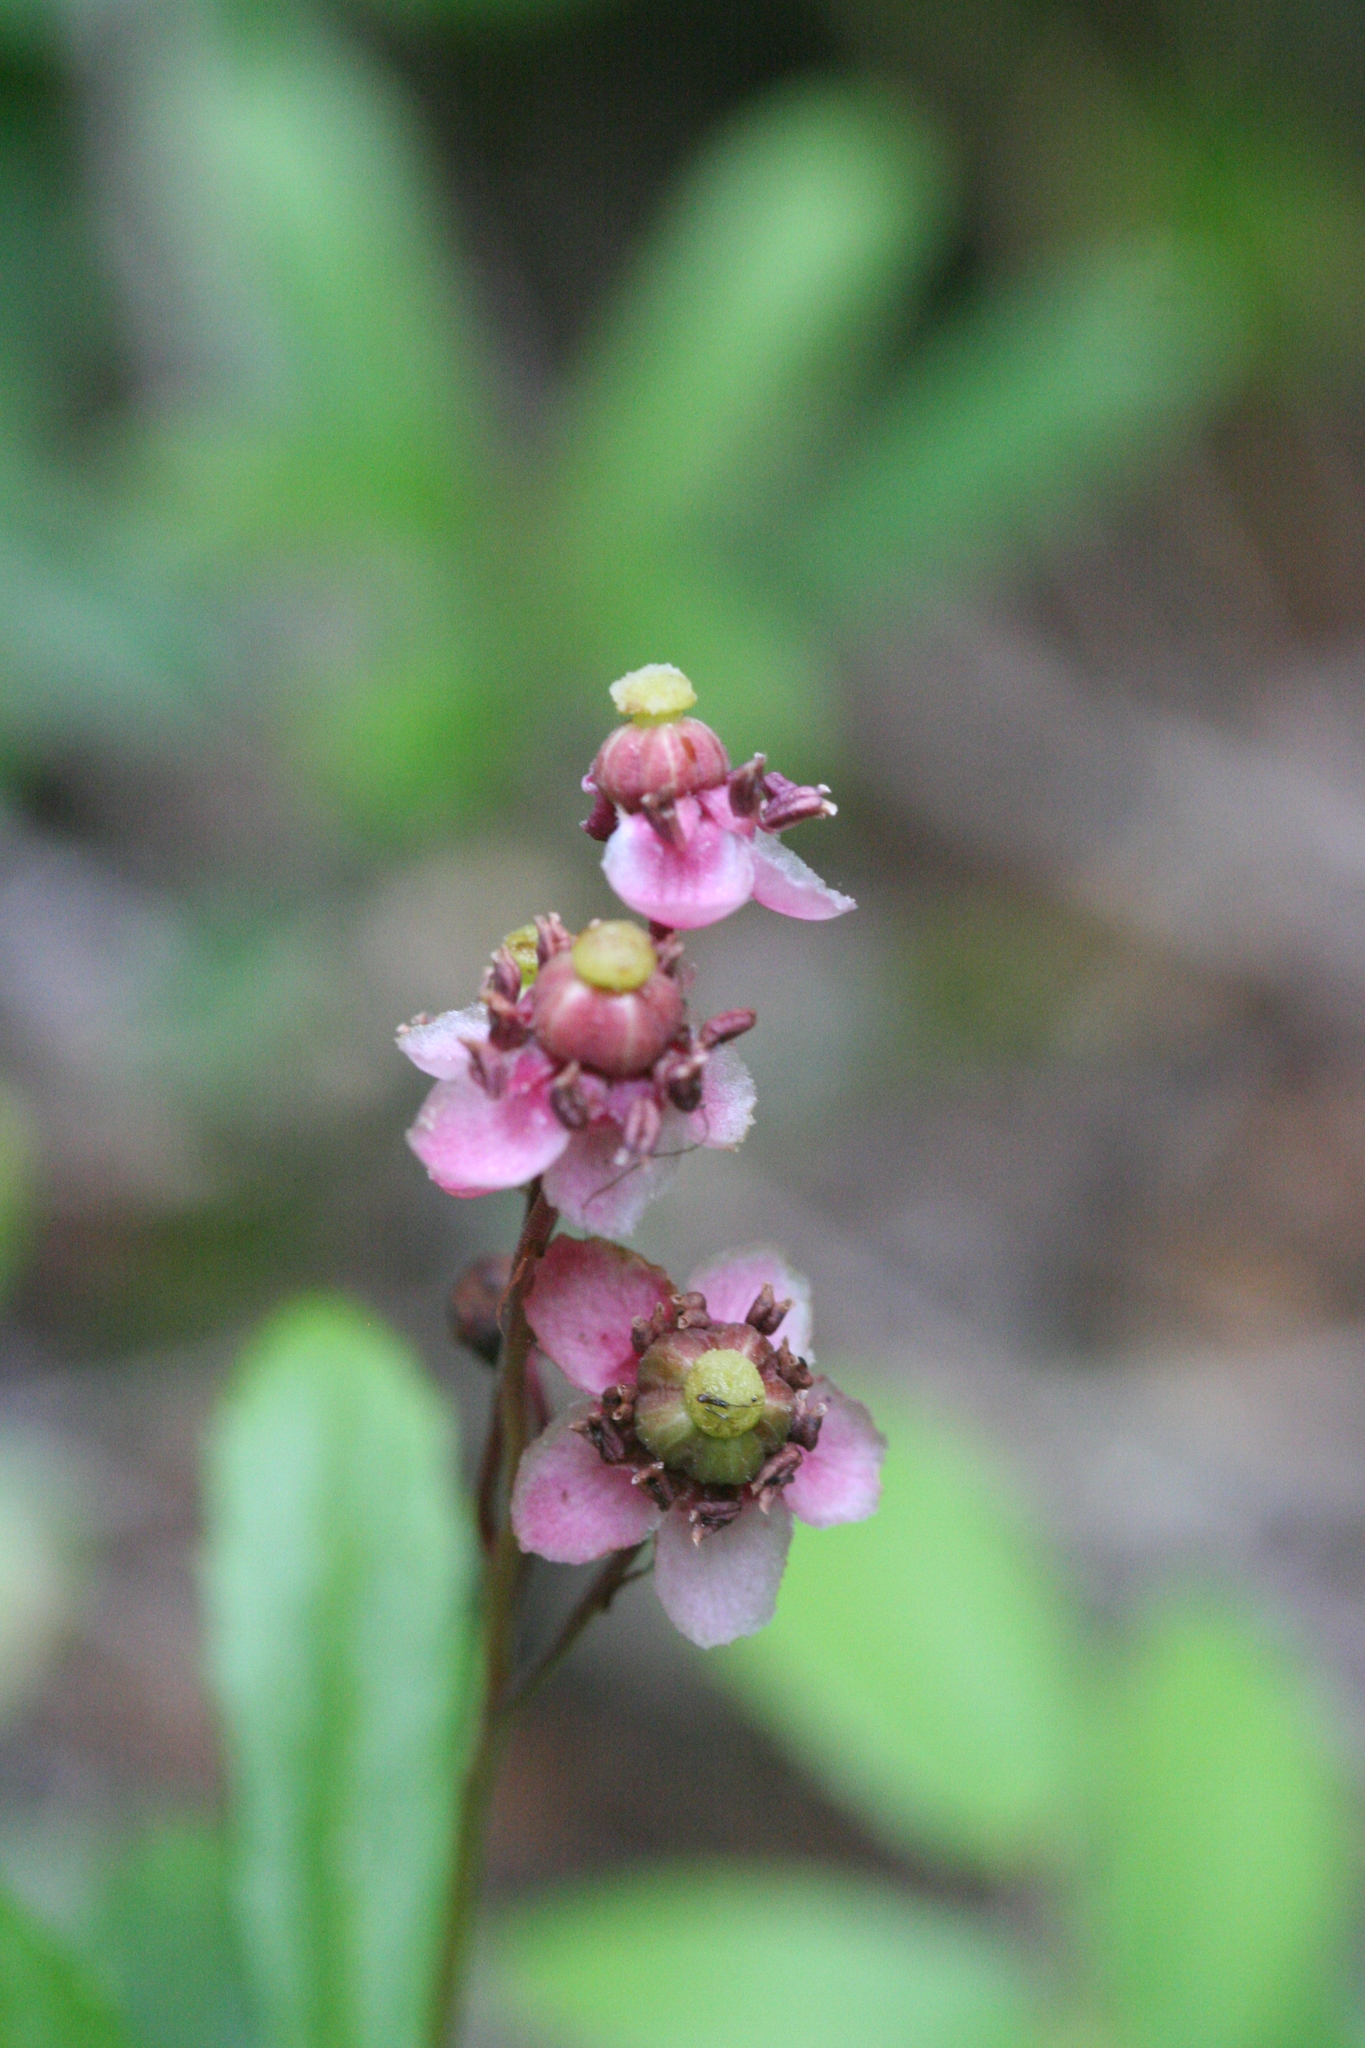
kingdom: Plantae
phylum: Tracheophyta
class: Magnoliopsida
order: Ericales
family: Ericaceae
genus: Chimaphila
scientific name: Chimaphila umbellata
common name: Pipsissewa
